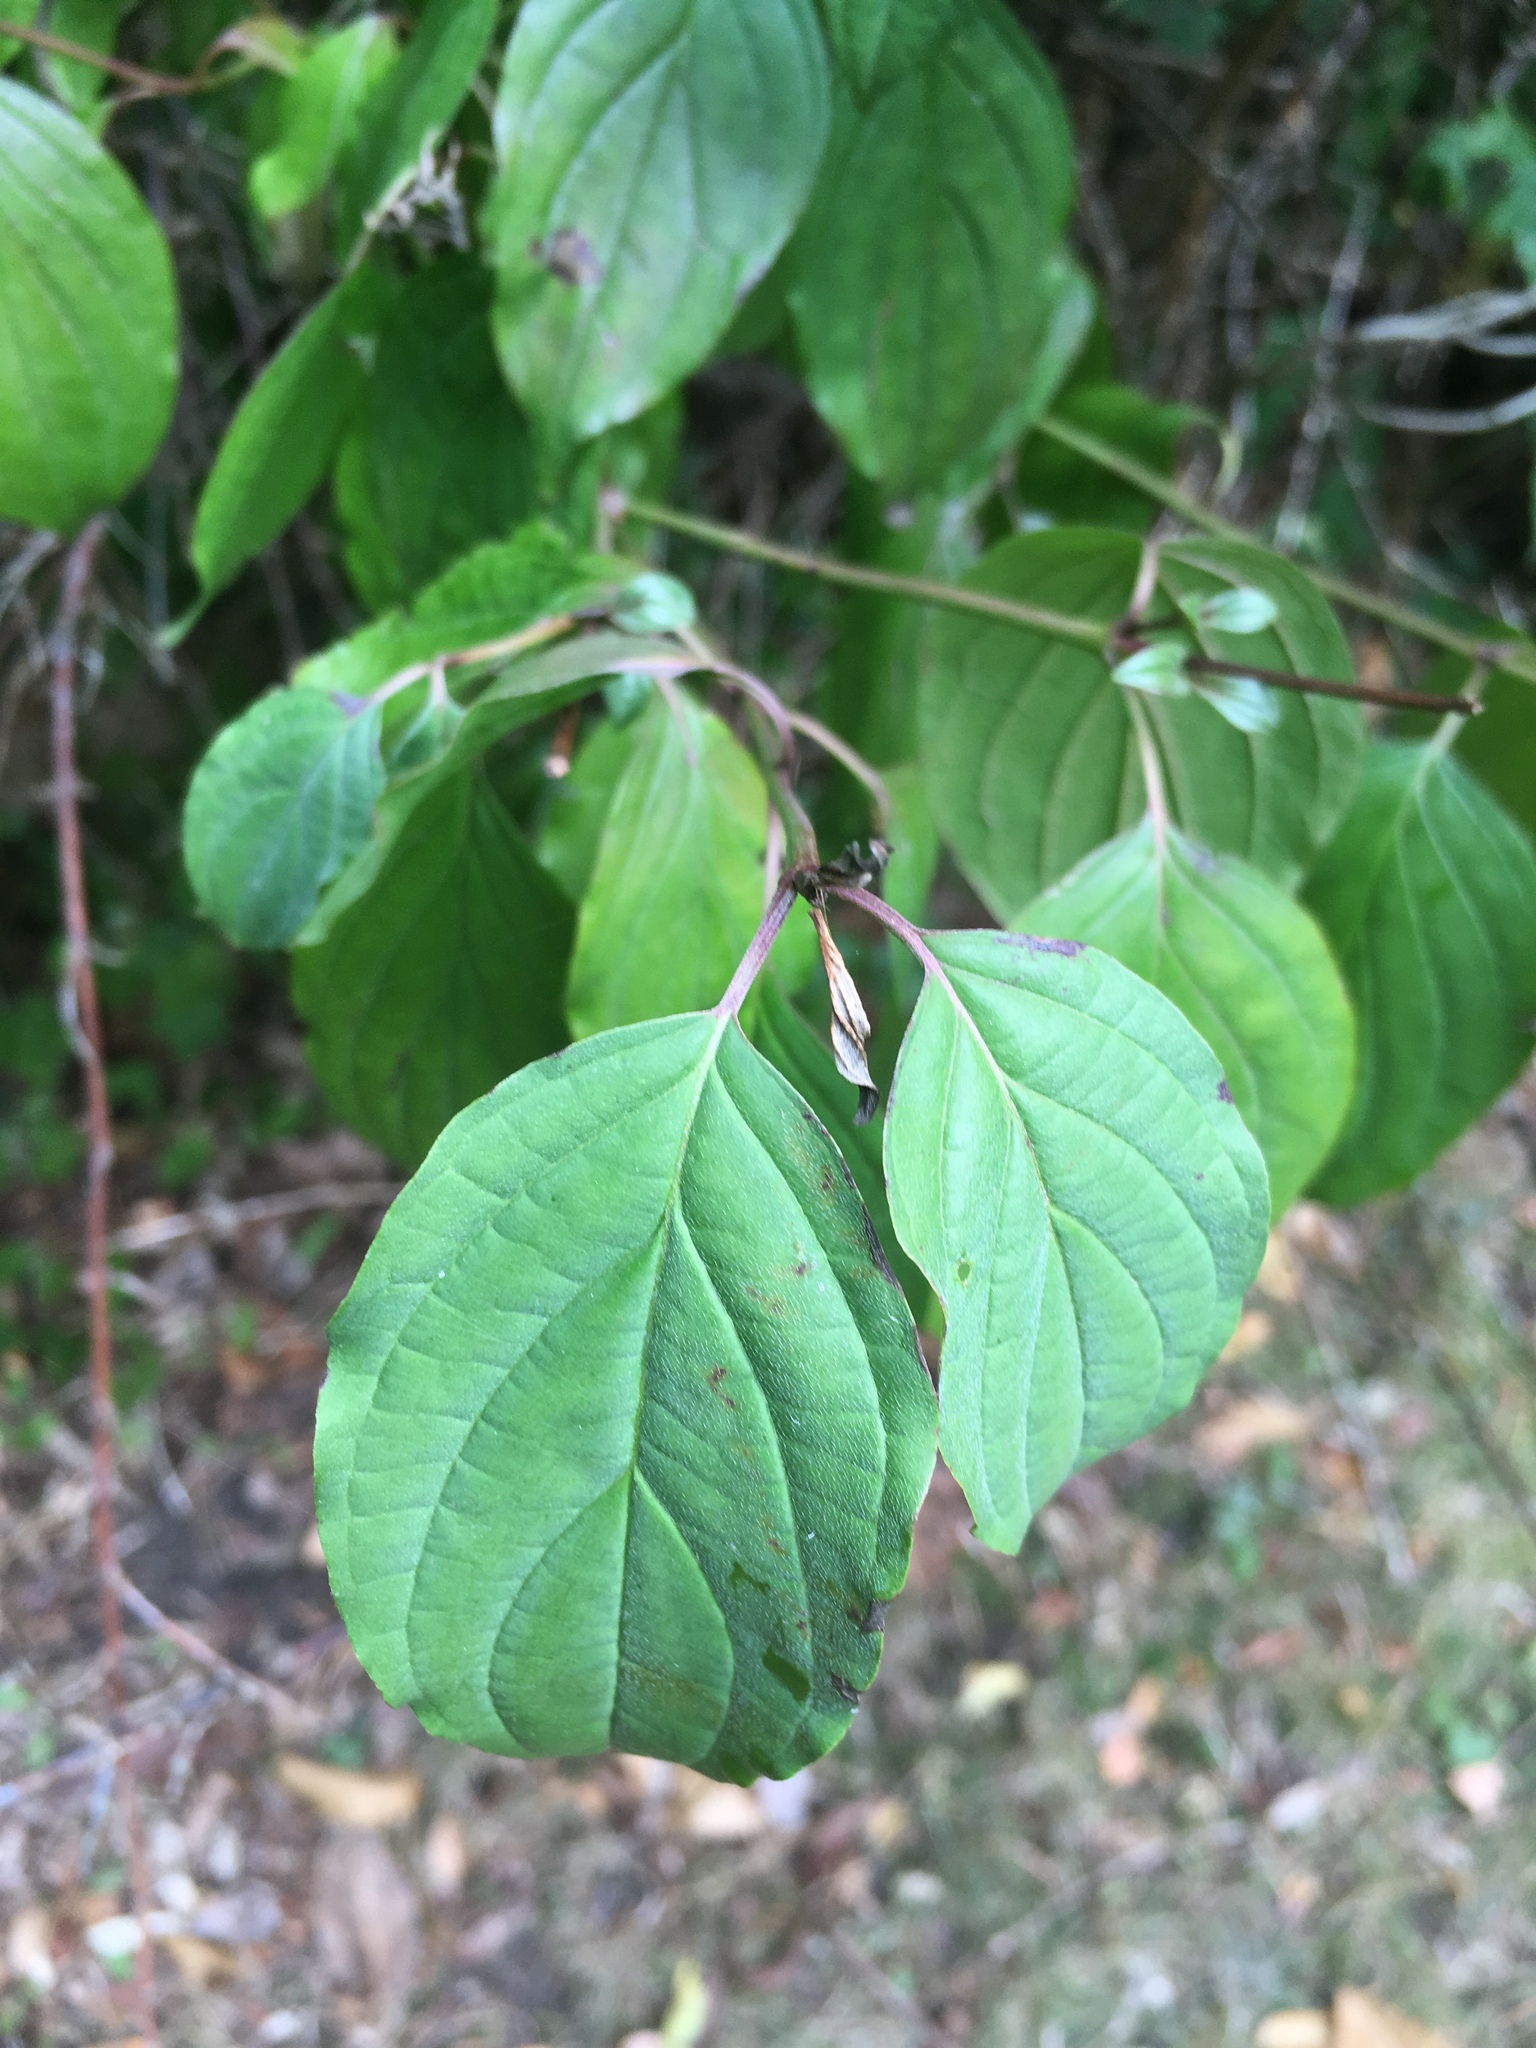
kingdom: Plantae
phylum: Tracheophyta
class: Magnoliopsida
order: Cornales
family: Cornaceae
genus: Cornus
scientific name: Cornus sanguinea
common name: Dogwood
